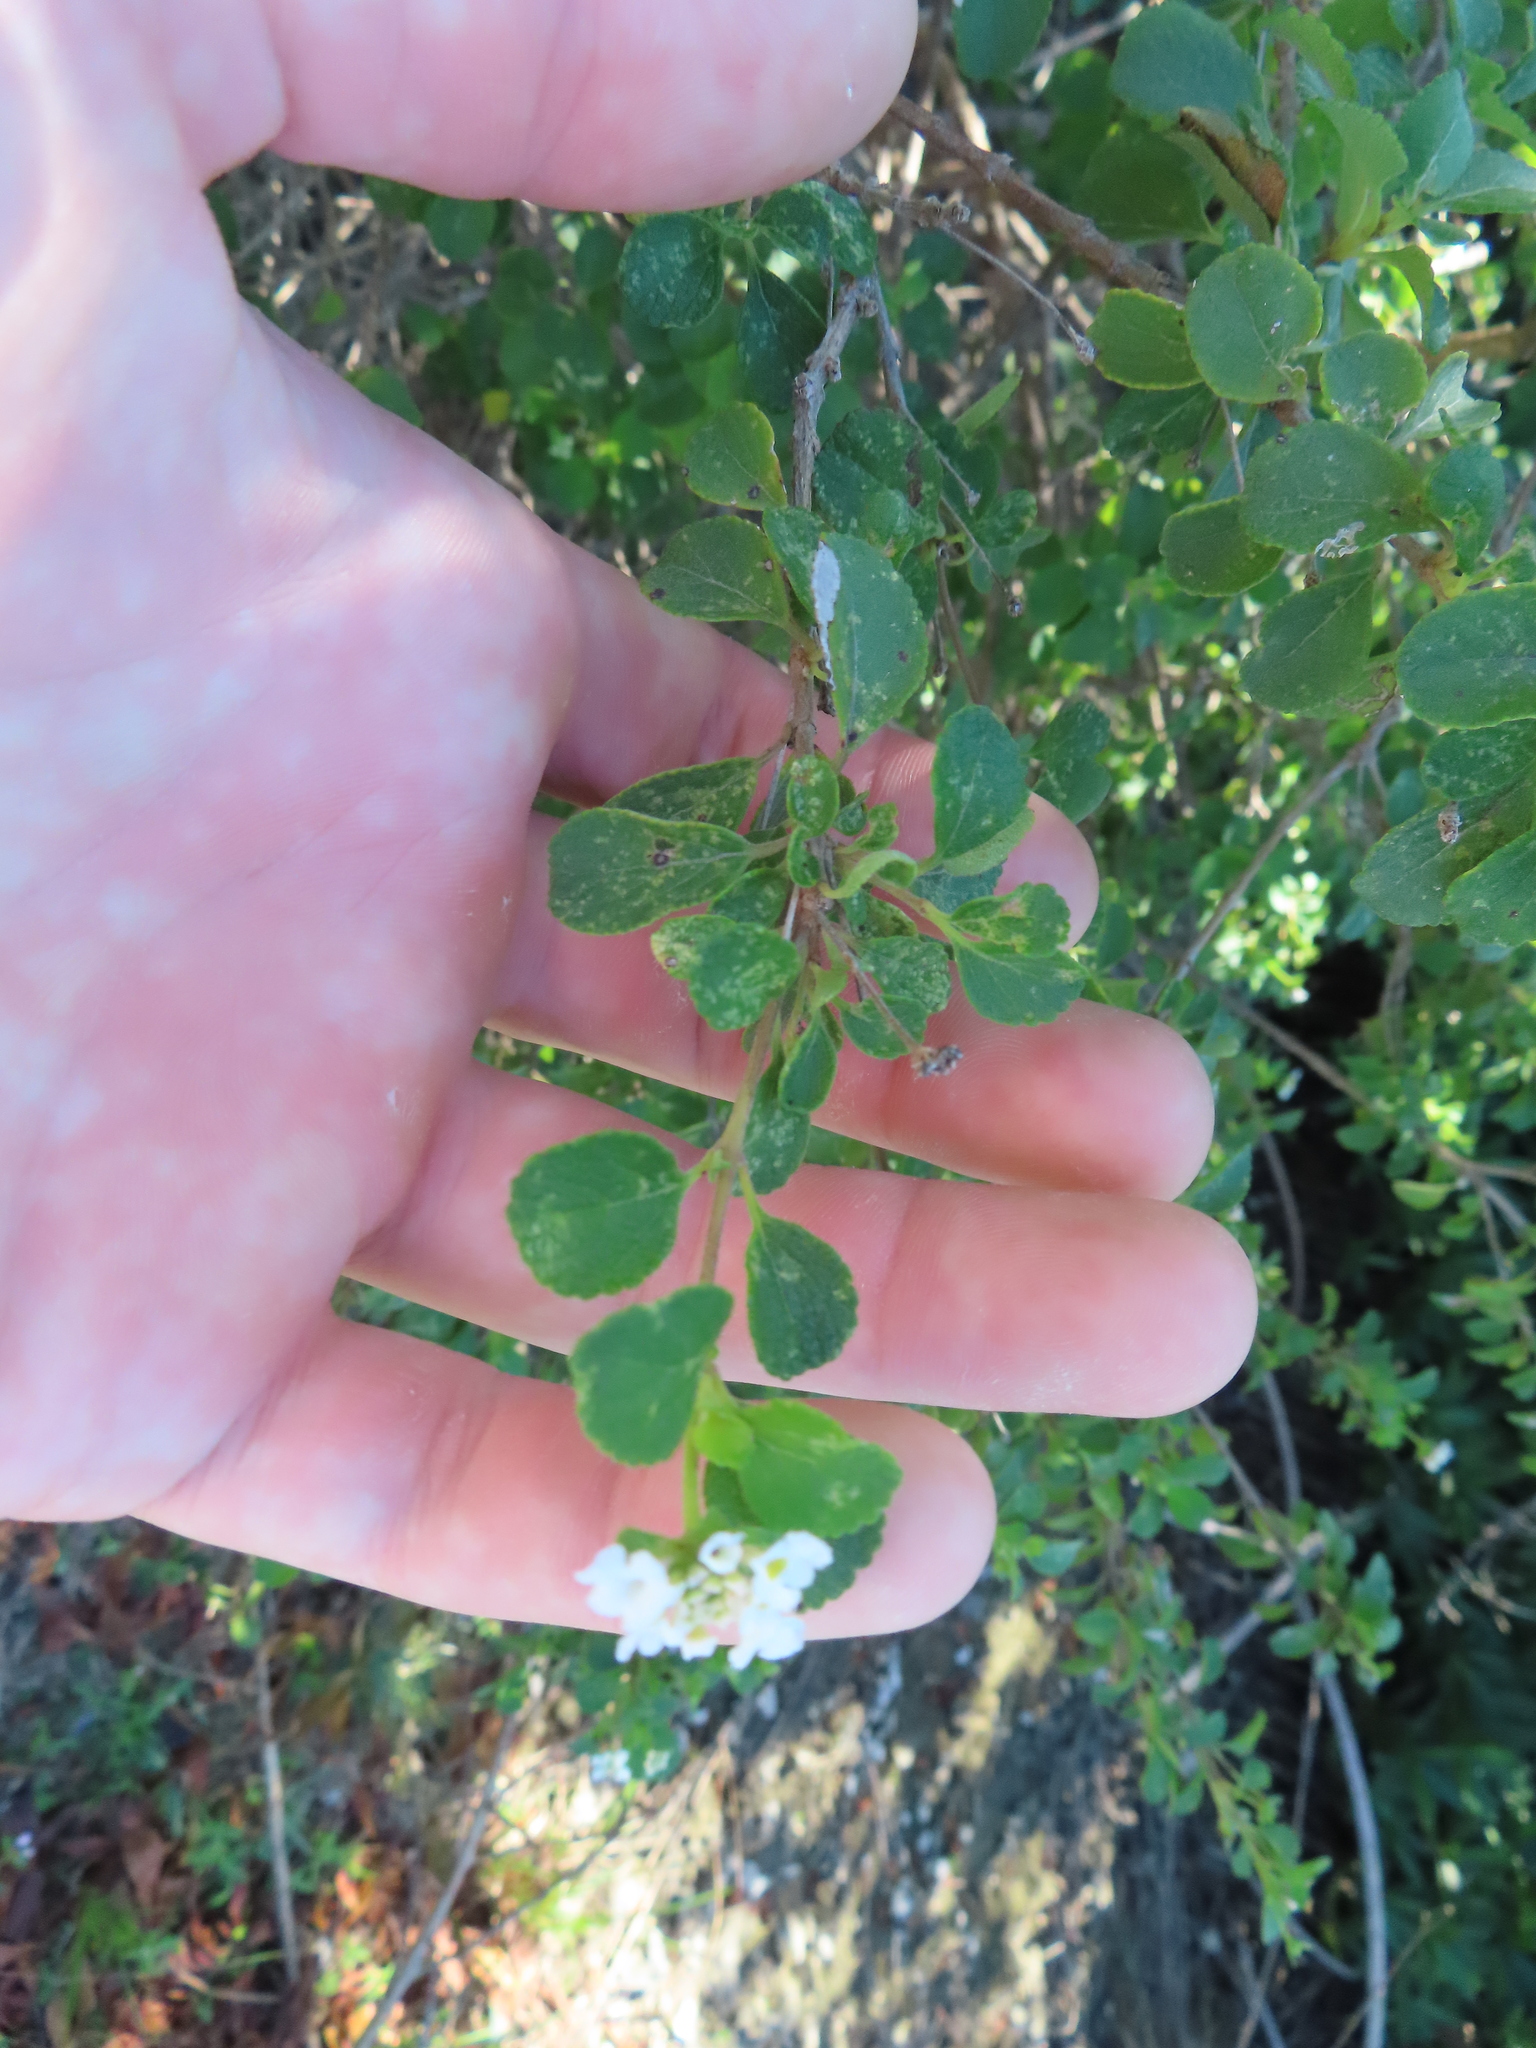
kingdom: Plantae
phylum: Tracheophyta
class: Magnoliopsida
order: Lamiales
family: Verbenaceae
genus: Lantana
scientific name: Lantana involucrata
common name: Black sage
